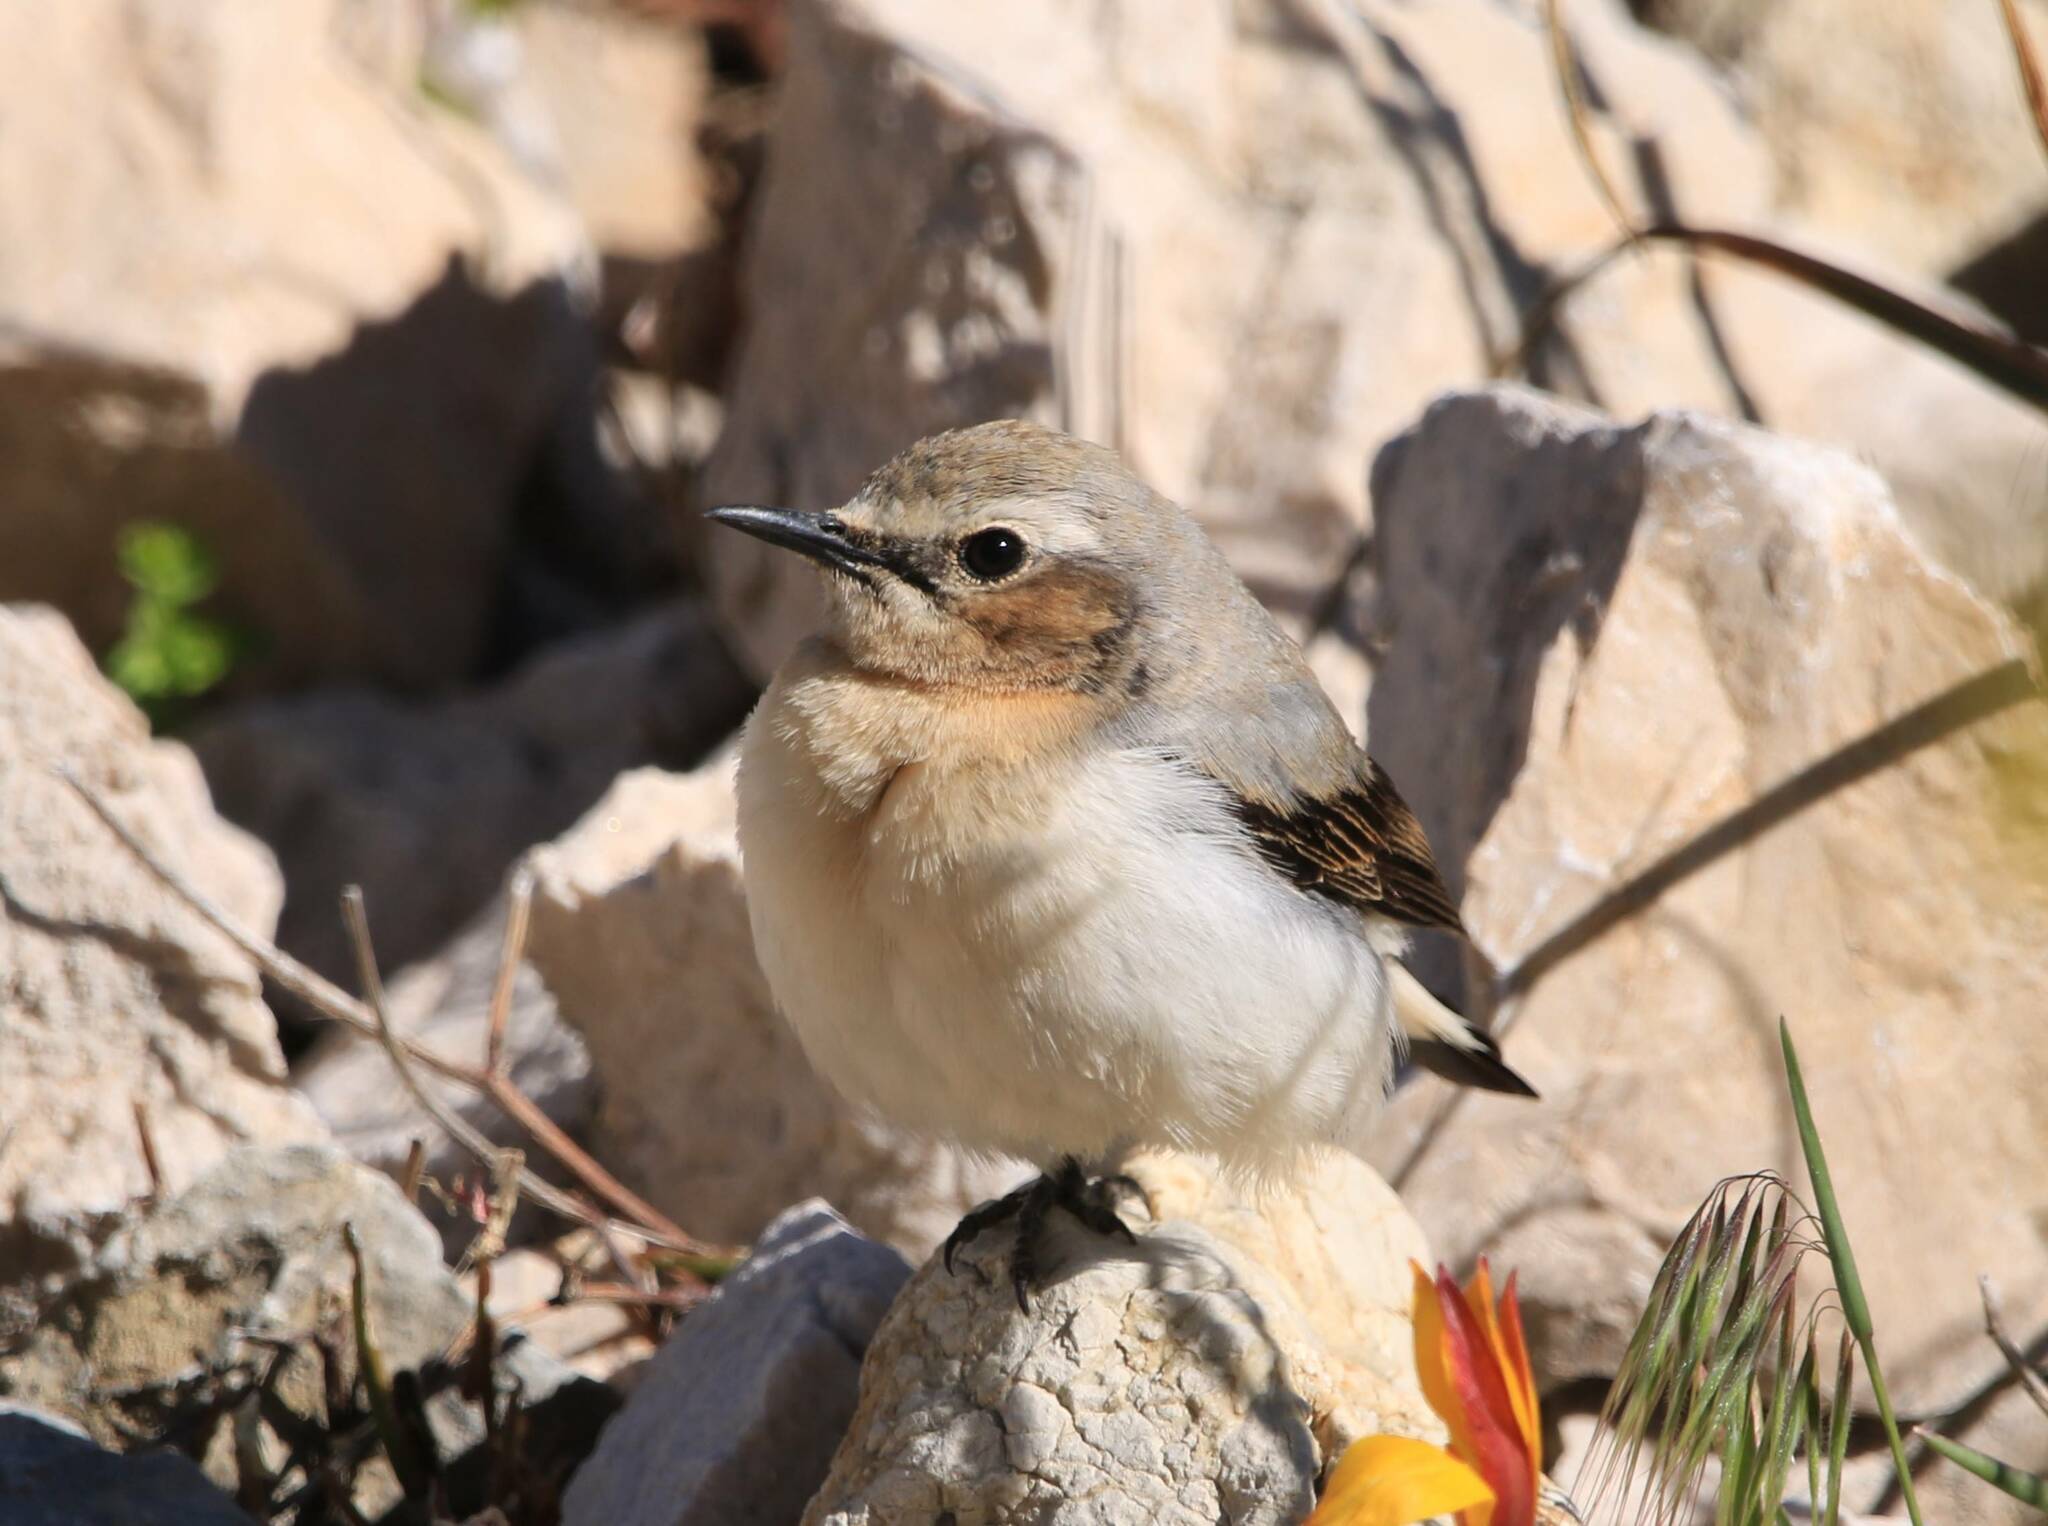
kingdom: Animalia
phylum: Chordata
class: Aves
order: Passeriformes
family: Muscicapidae
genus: Oenanthe
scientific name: Oenanthe oenanthe
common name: Northern wheatear
